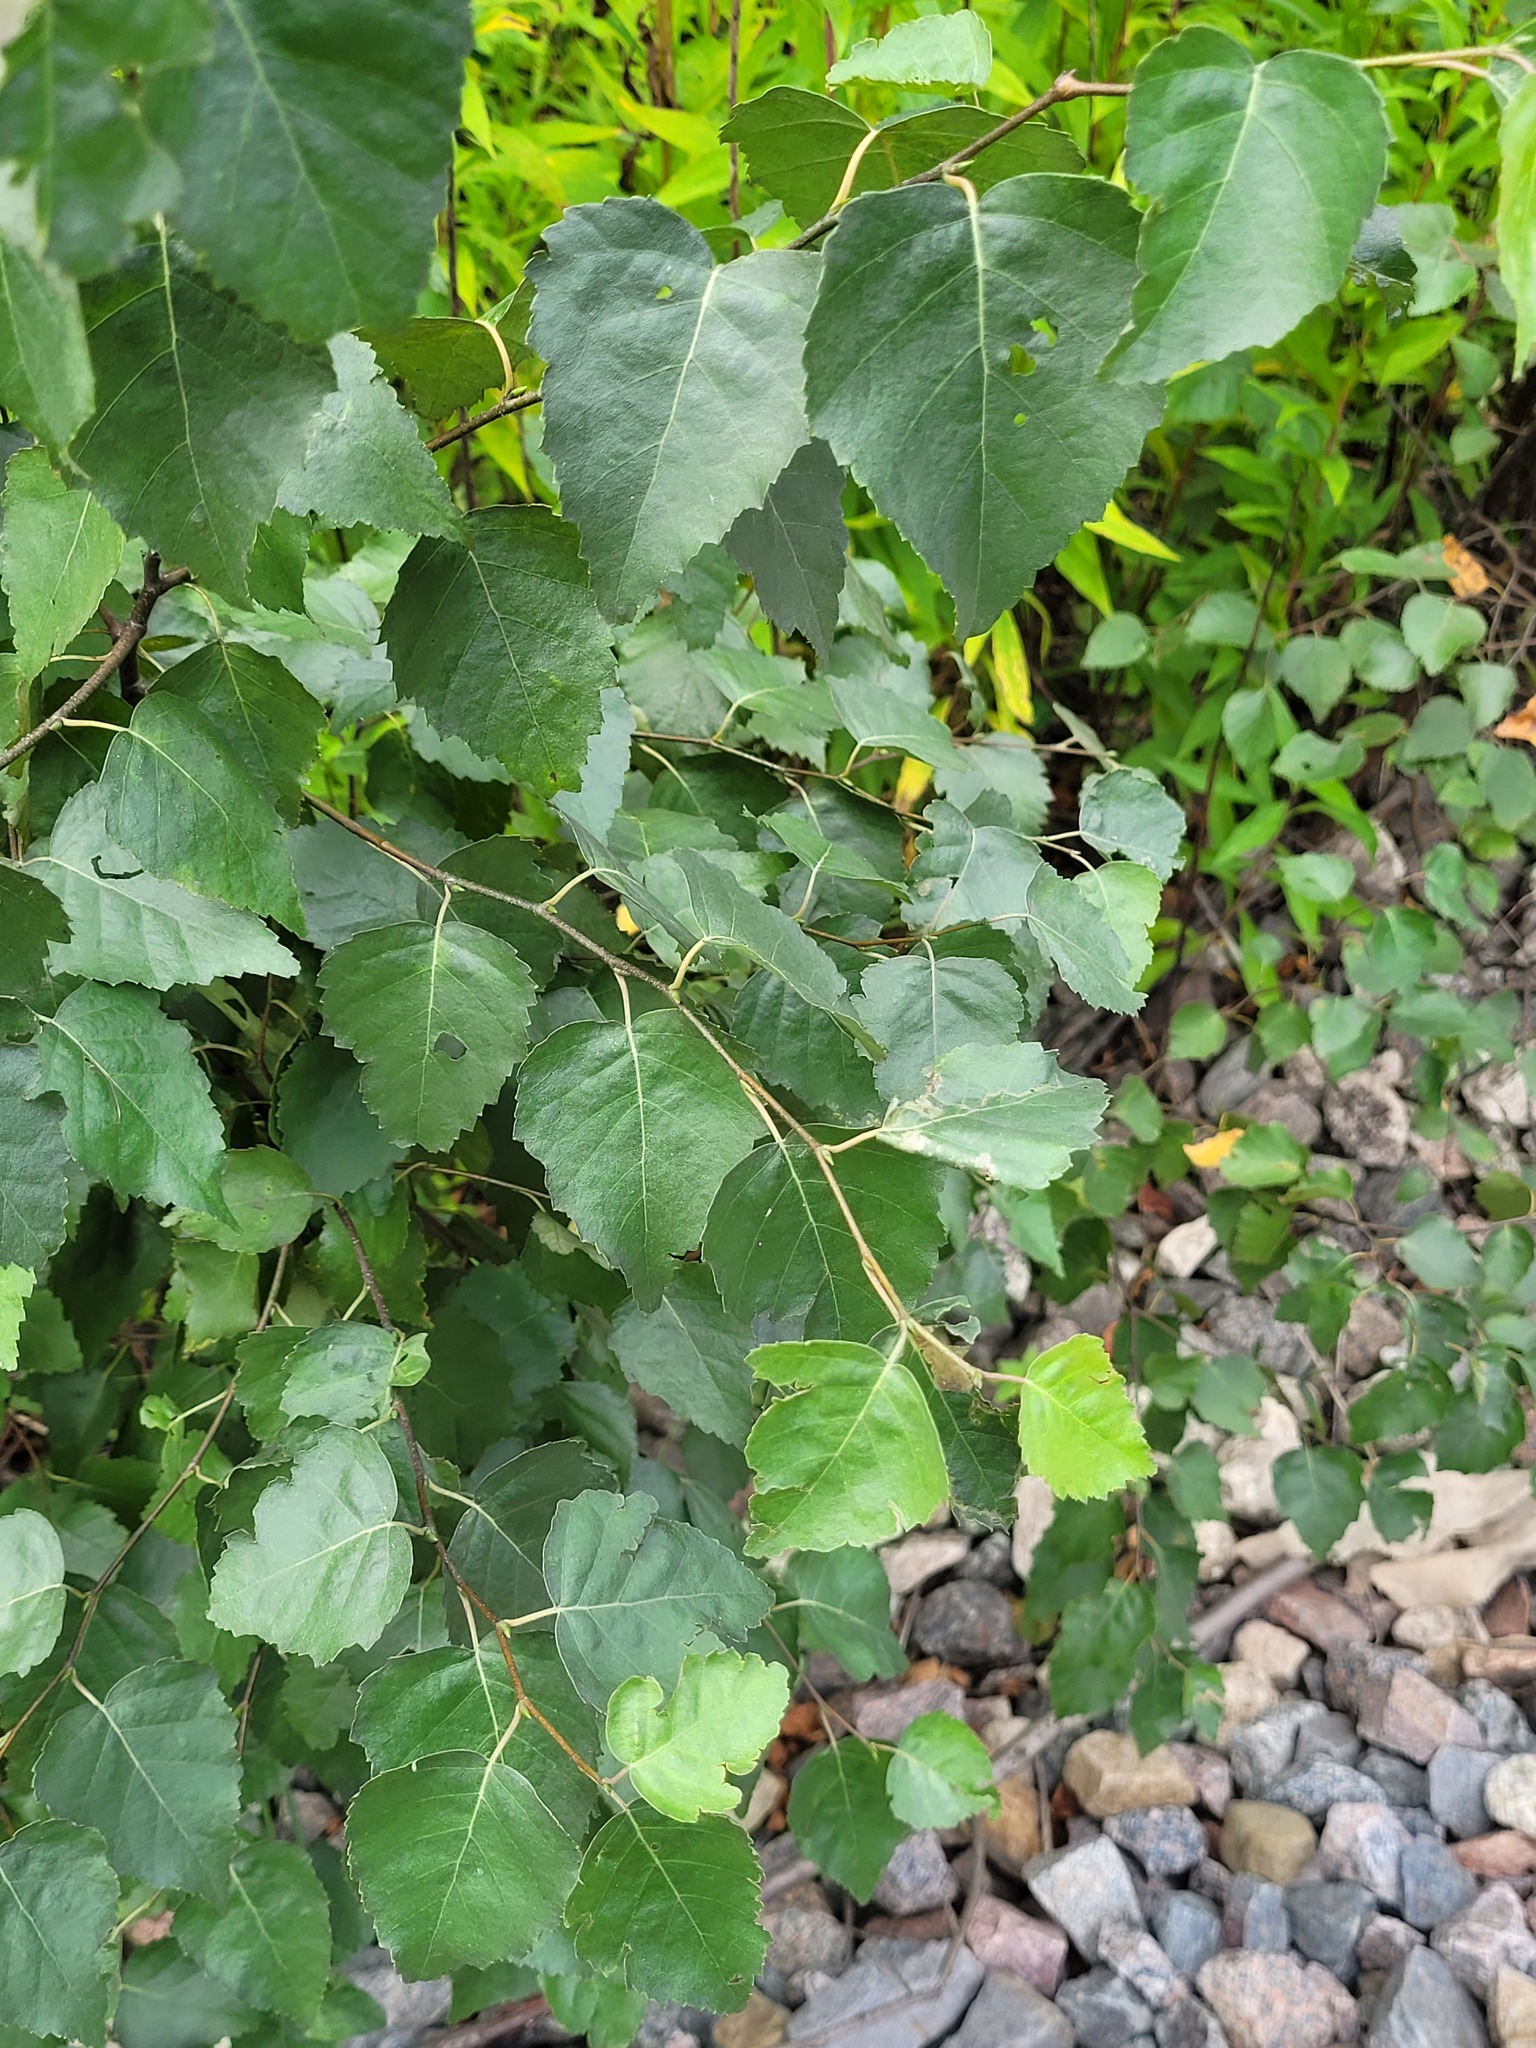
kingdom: Plantae
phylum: Tracheophyta
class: Magnoliopsida
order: Fagales
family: Betulaceae
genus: Betula
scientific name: Betula pendula
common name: Silver birch
